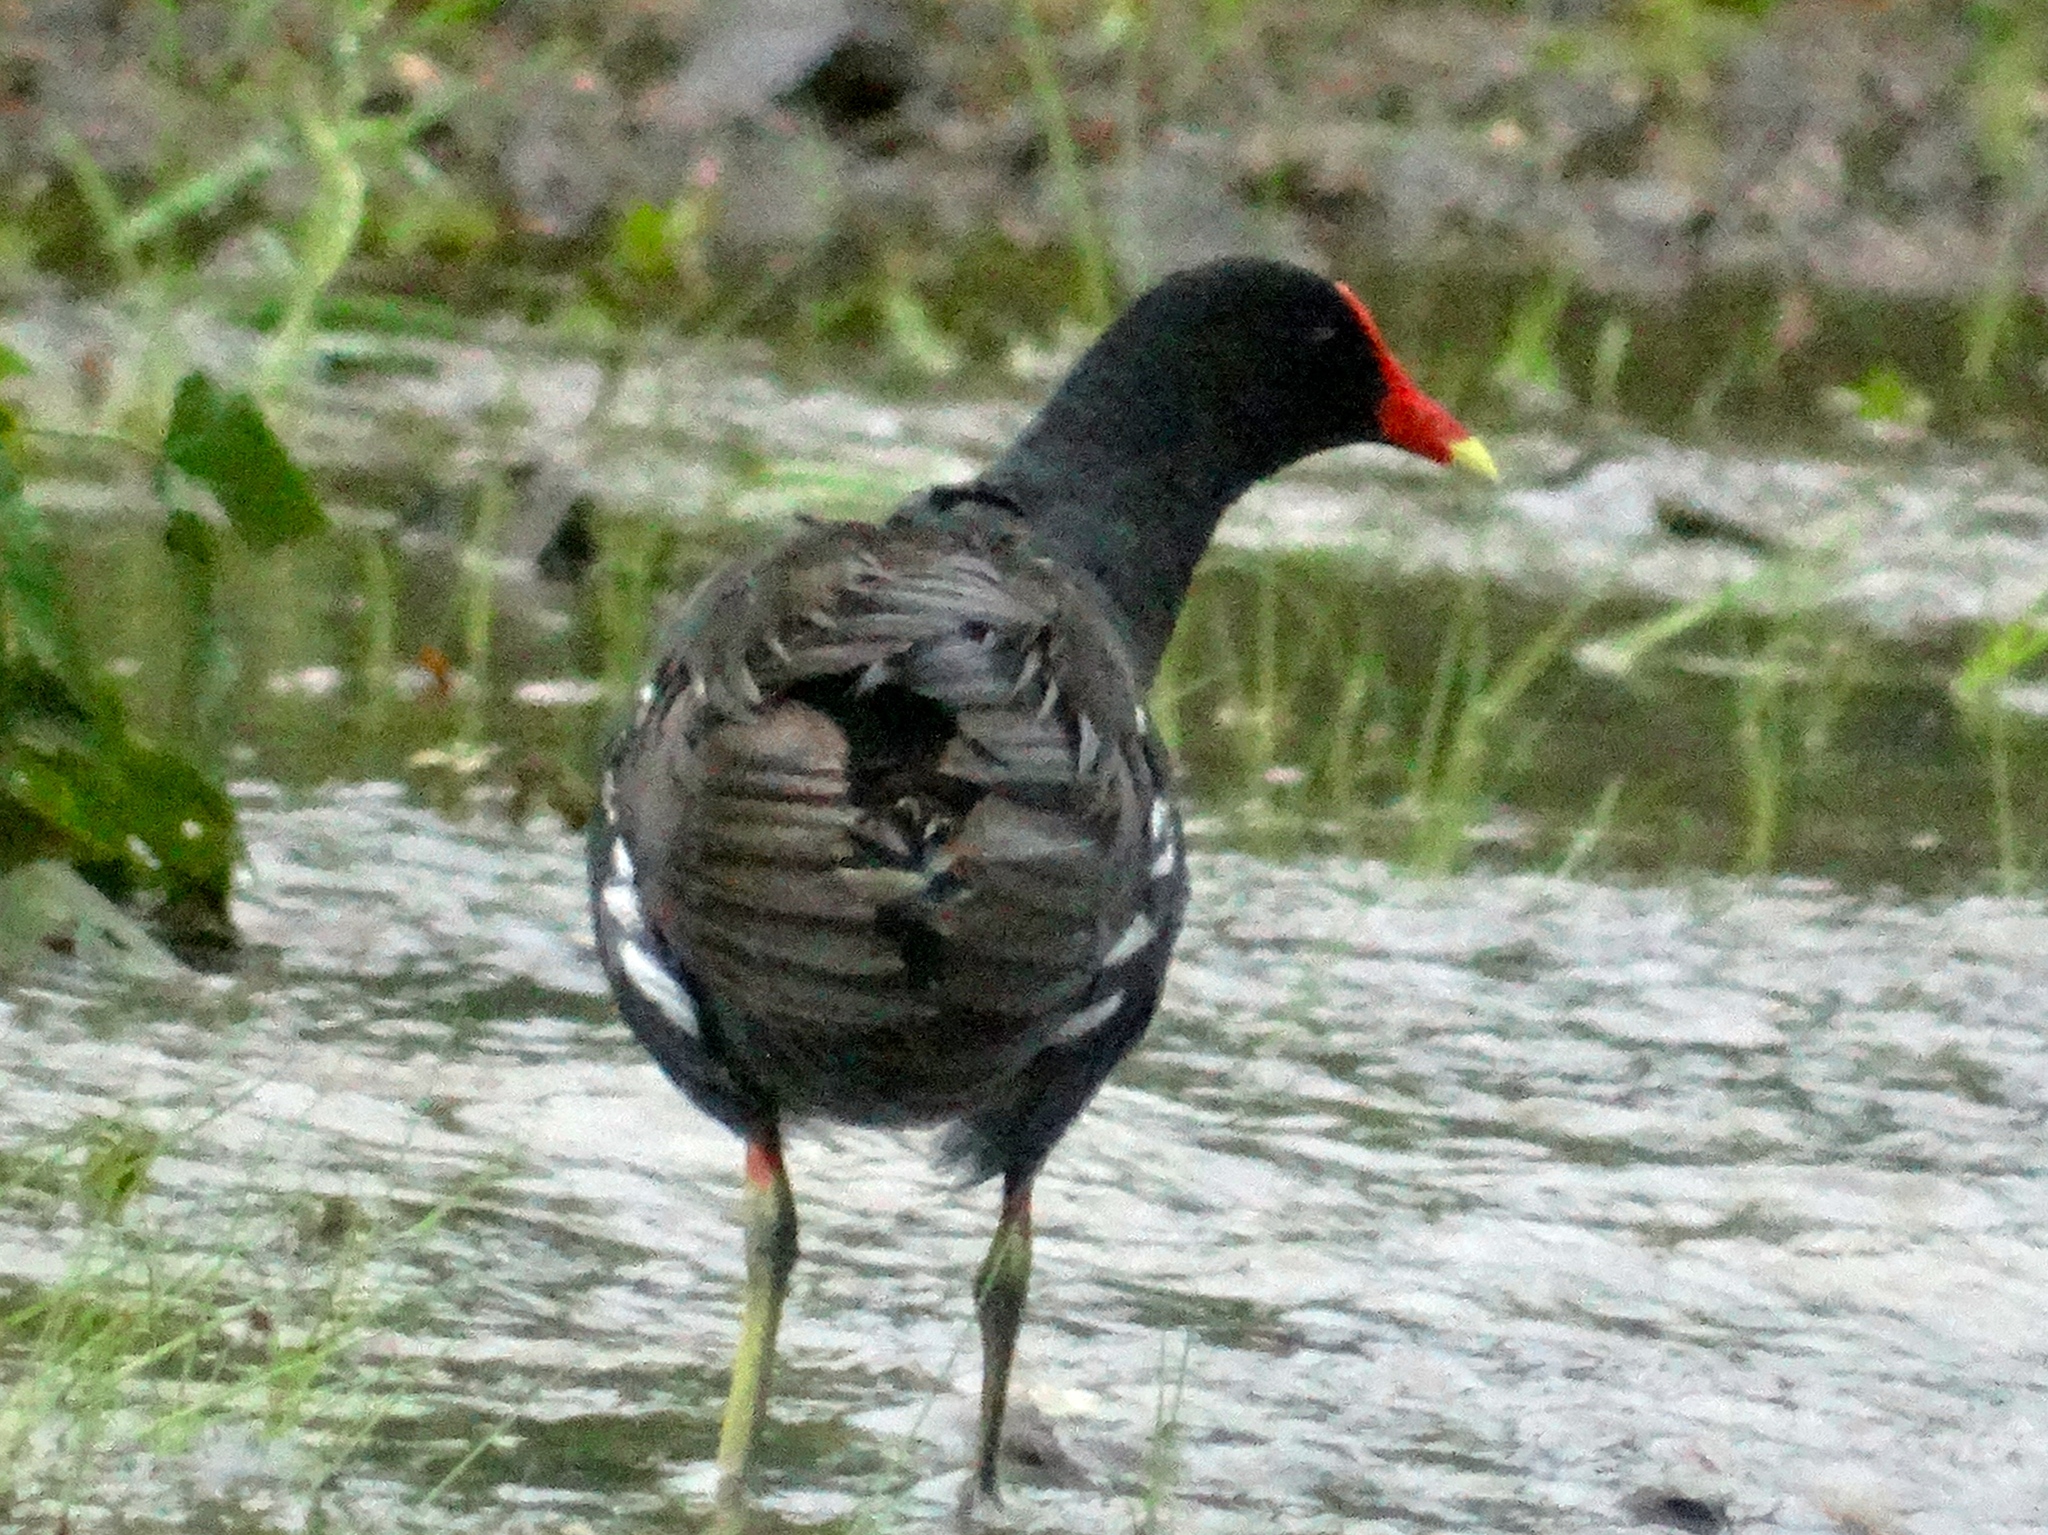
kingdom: Animalia
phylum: Chordata
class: Aves
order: Gruiformes
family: Rallidae
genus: Gallinula
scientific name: Gallinula chloropus
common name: Common moorhen
